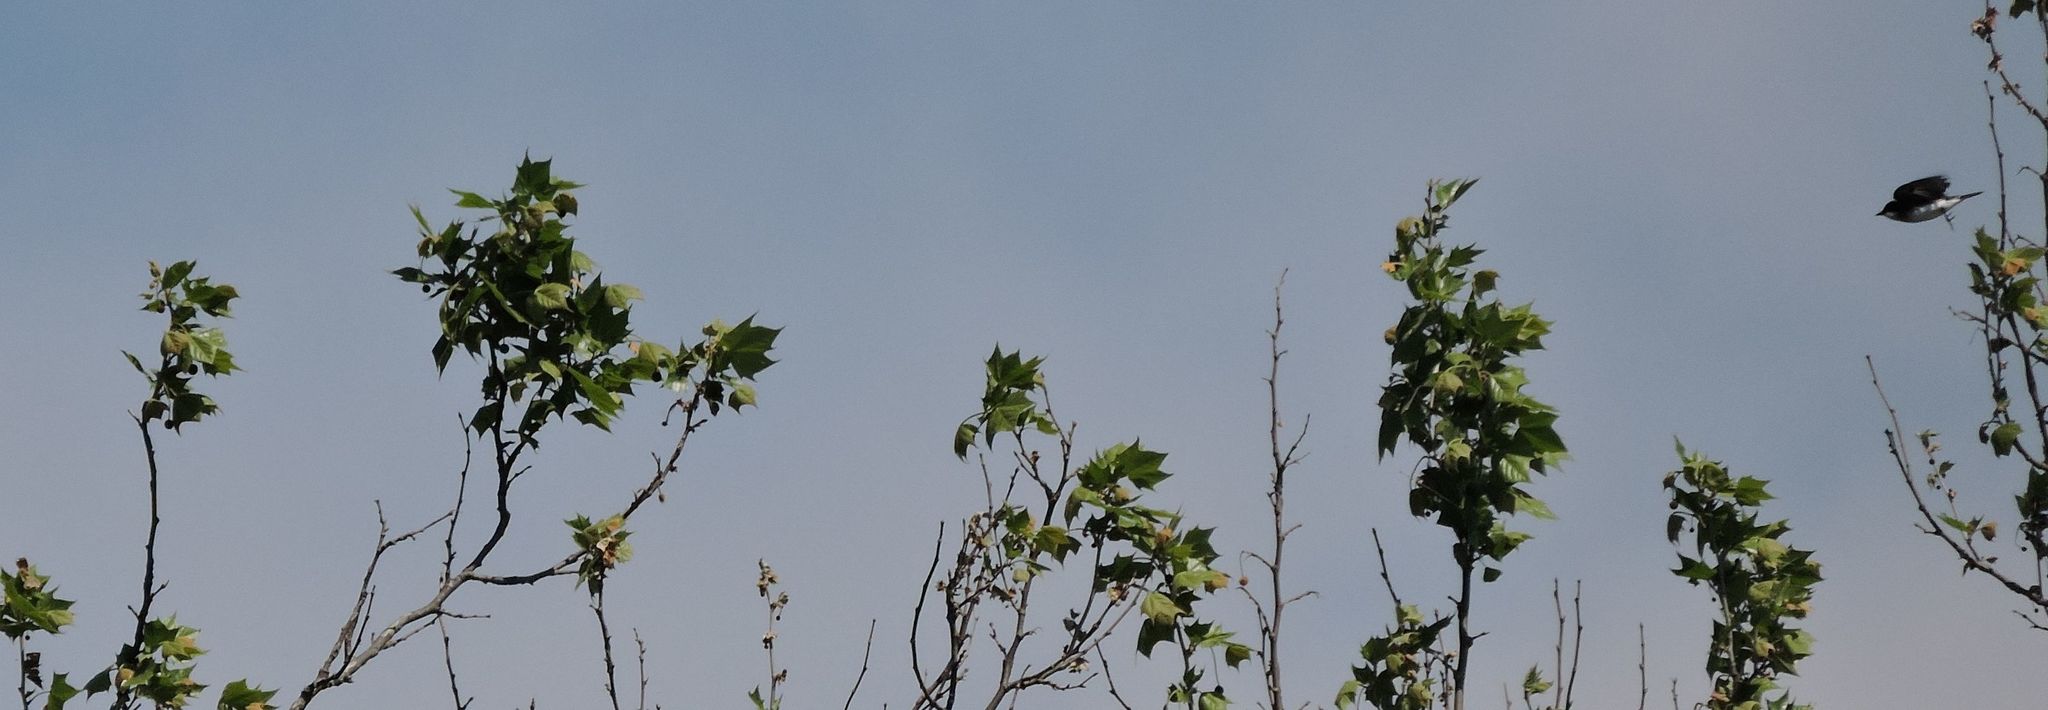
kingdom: Animalia
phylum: Chordata
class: Aves
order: Passeriformes
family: Hirundinidae
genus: Tachycineta
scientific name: Tachycineta bicolor
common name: Tree swallow
